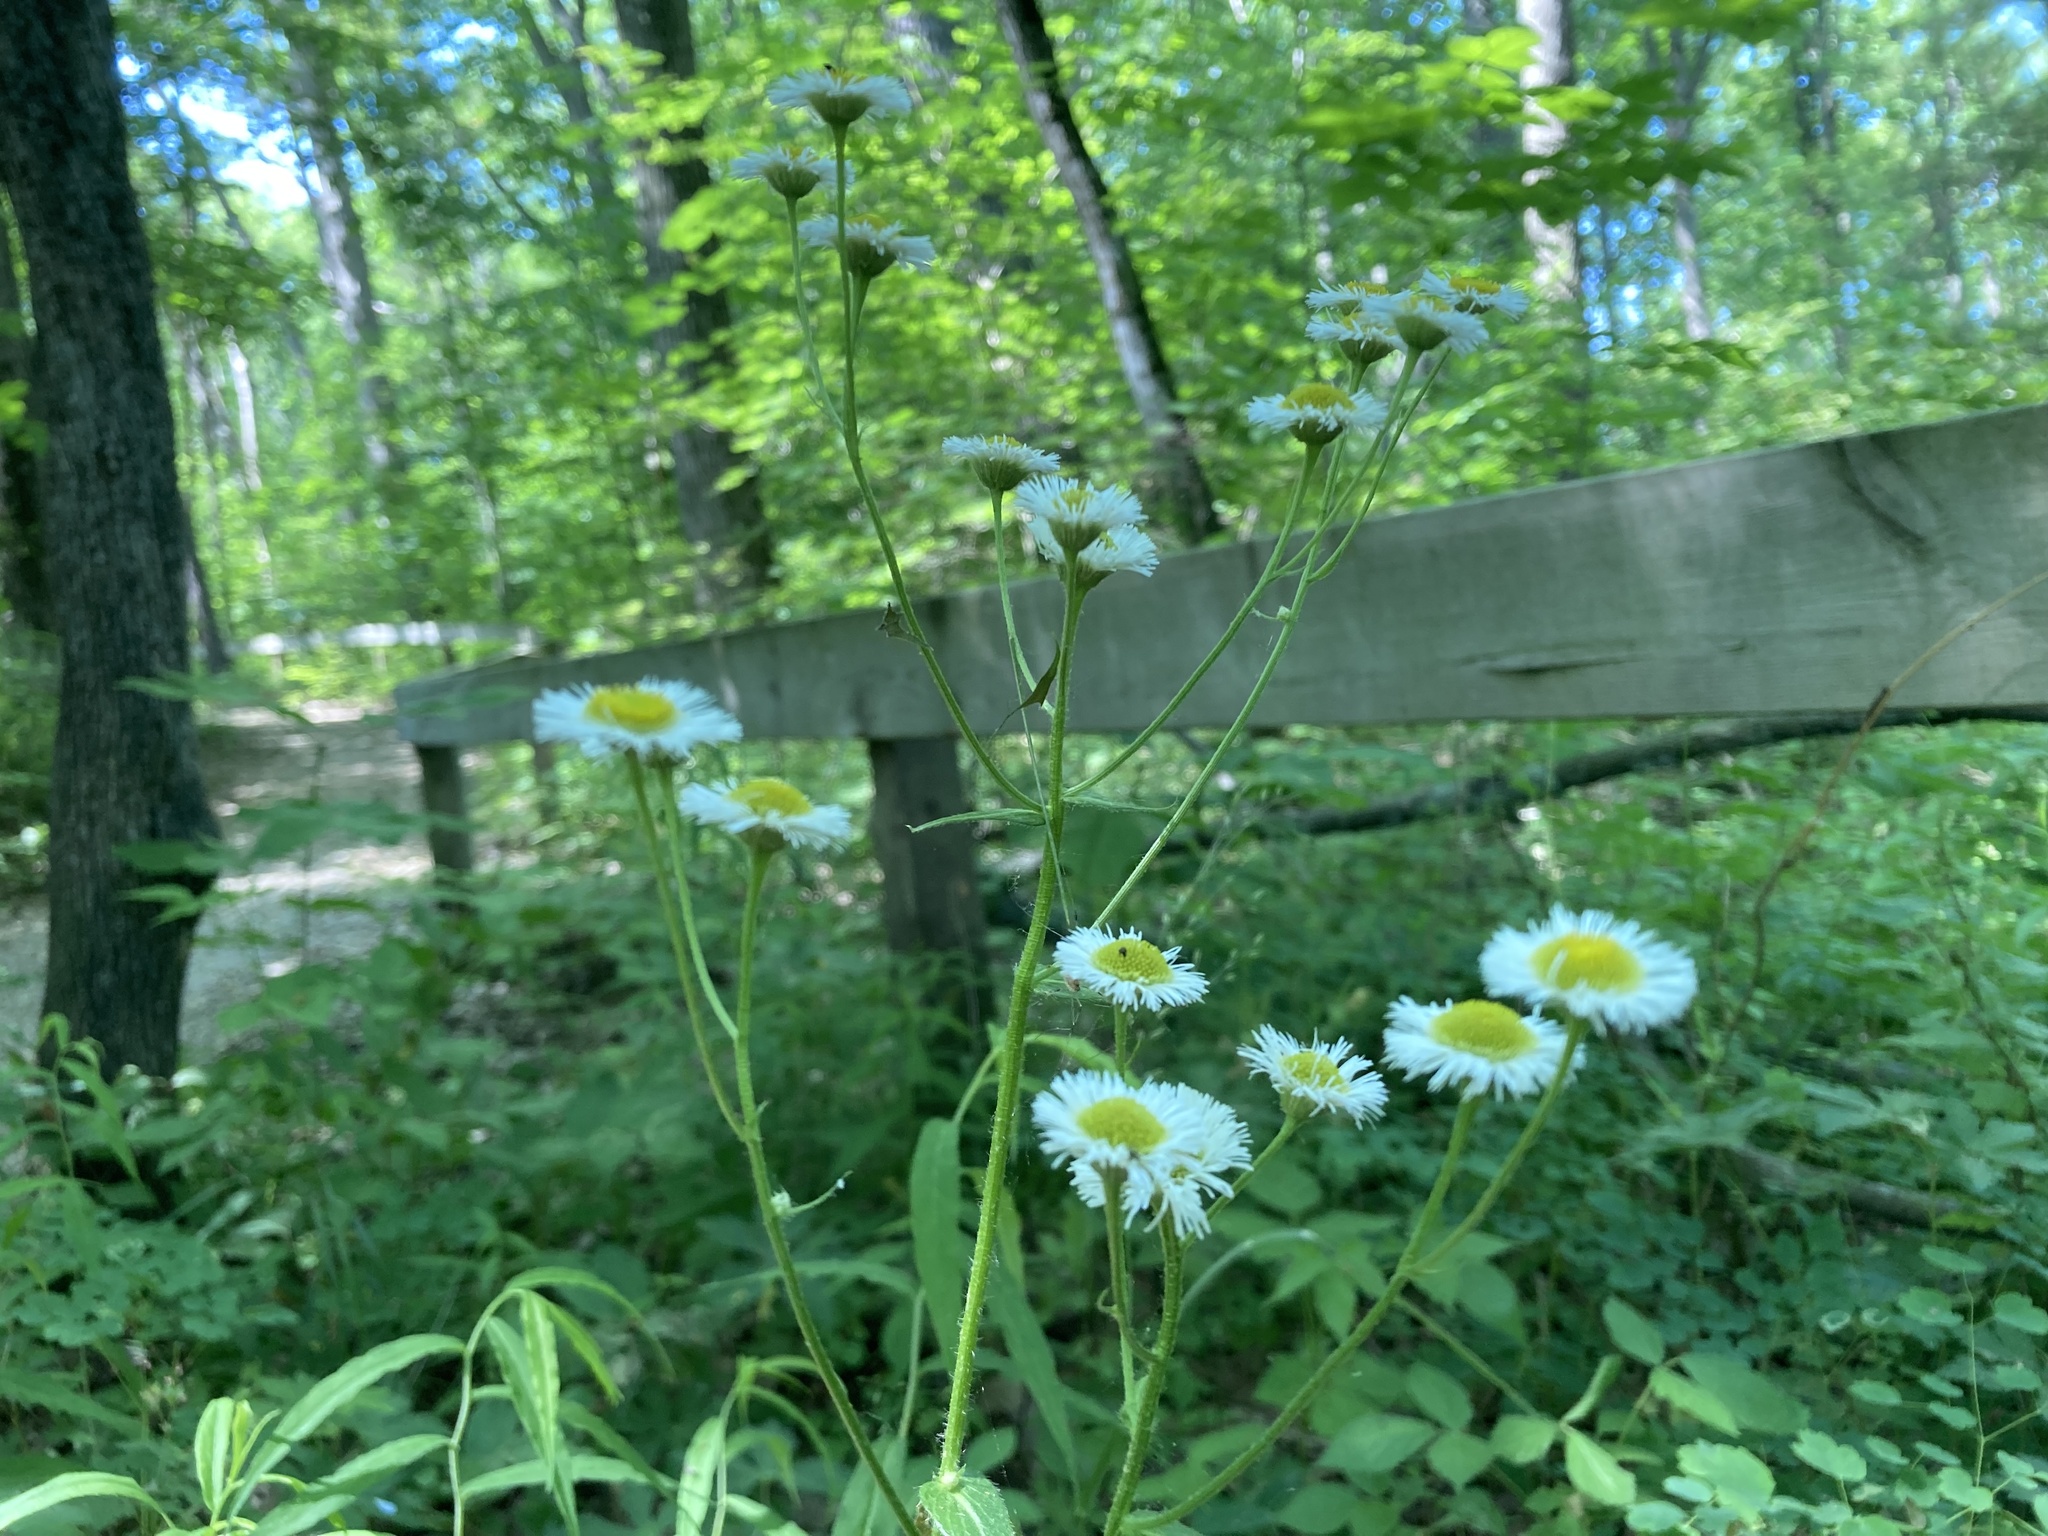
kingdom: Plantae
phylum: Tracheophyta
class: Magnoliopsida
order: Asterales
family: Asteraceae
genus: Erigeron
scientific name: Erigeron philadelphicus
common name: Robin's-plantain
